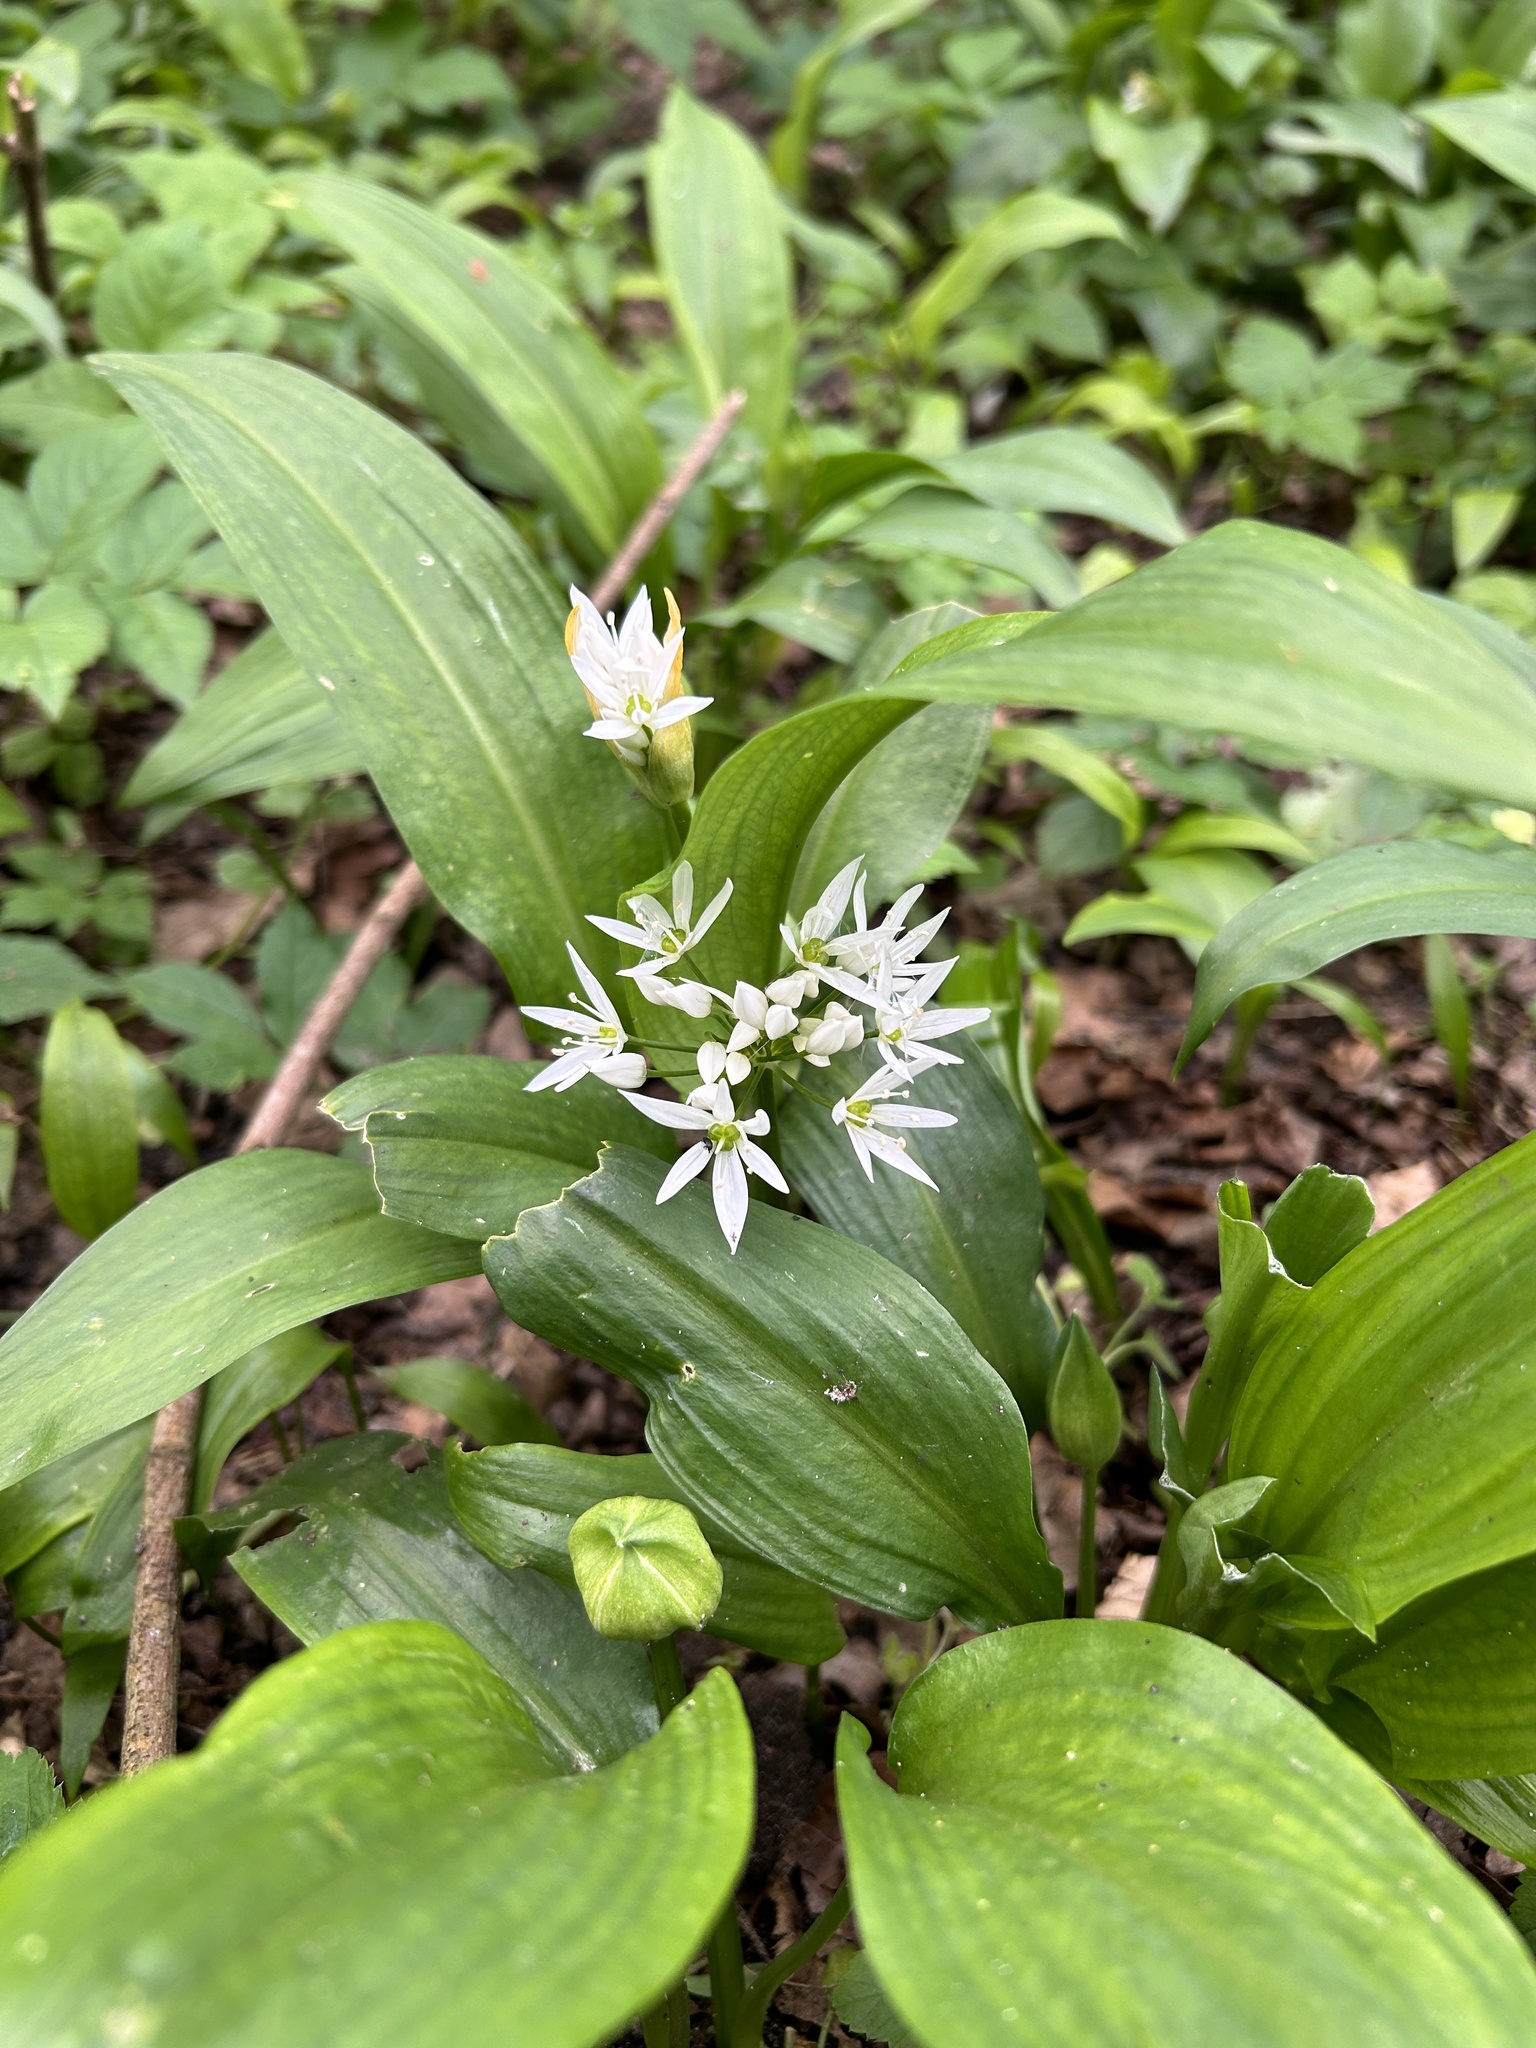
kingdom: Plantae
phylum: Tracheophyta
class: Liliopsida
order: Asparagales
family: Amaryllidaceae
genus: Allium
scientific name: Allium ursinum
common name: Ramsons
